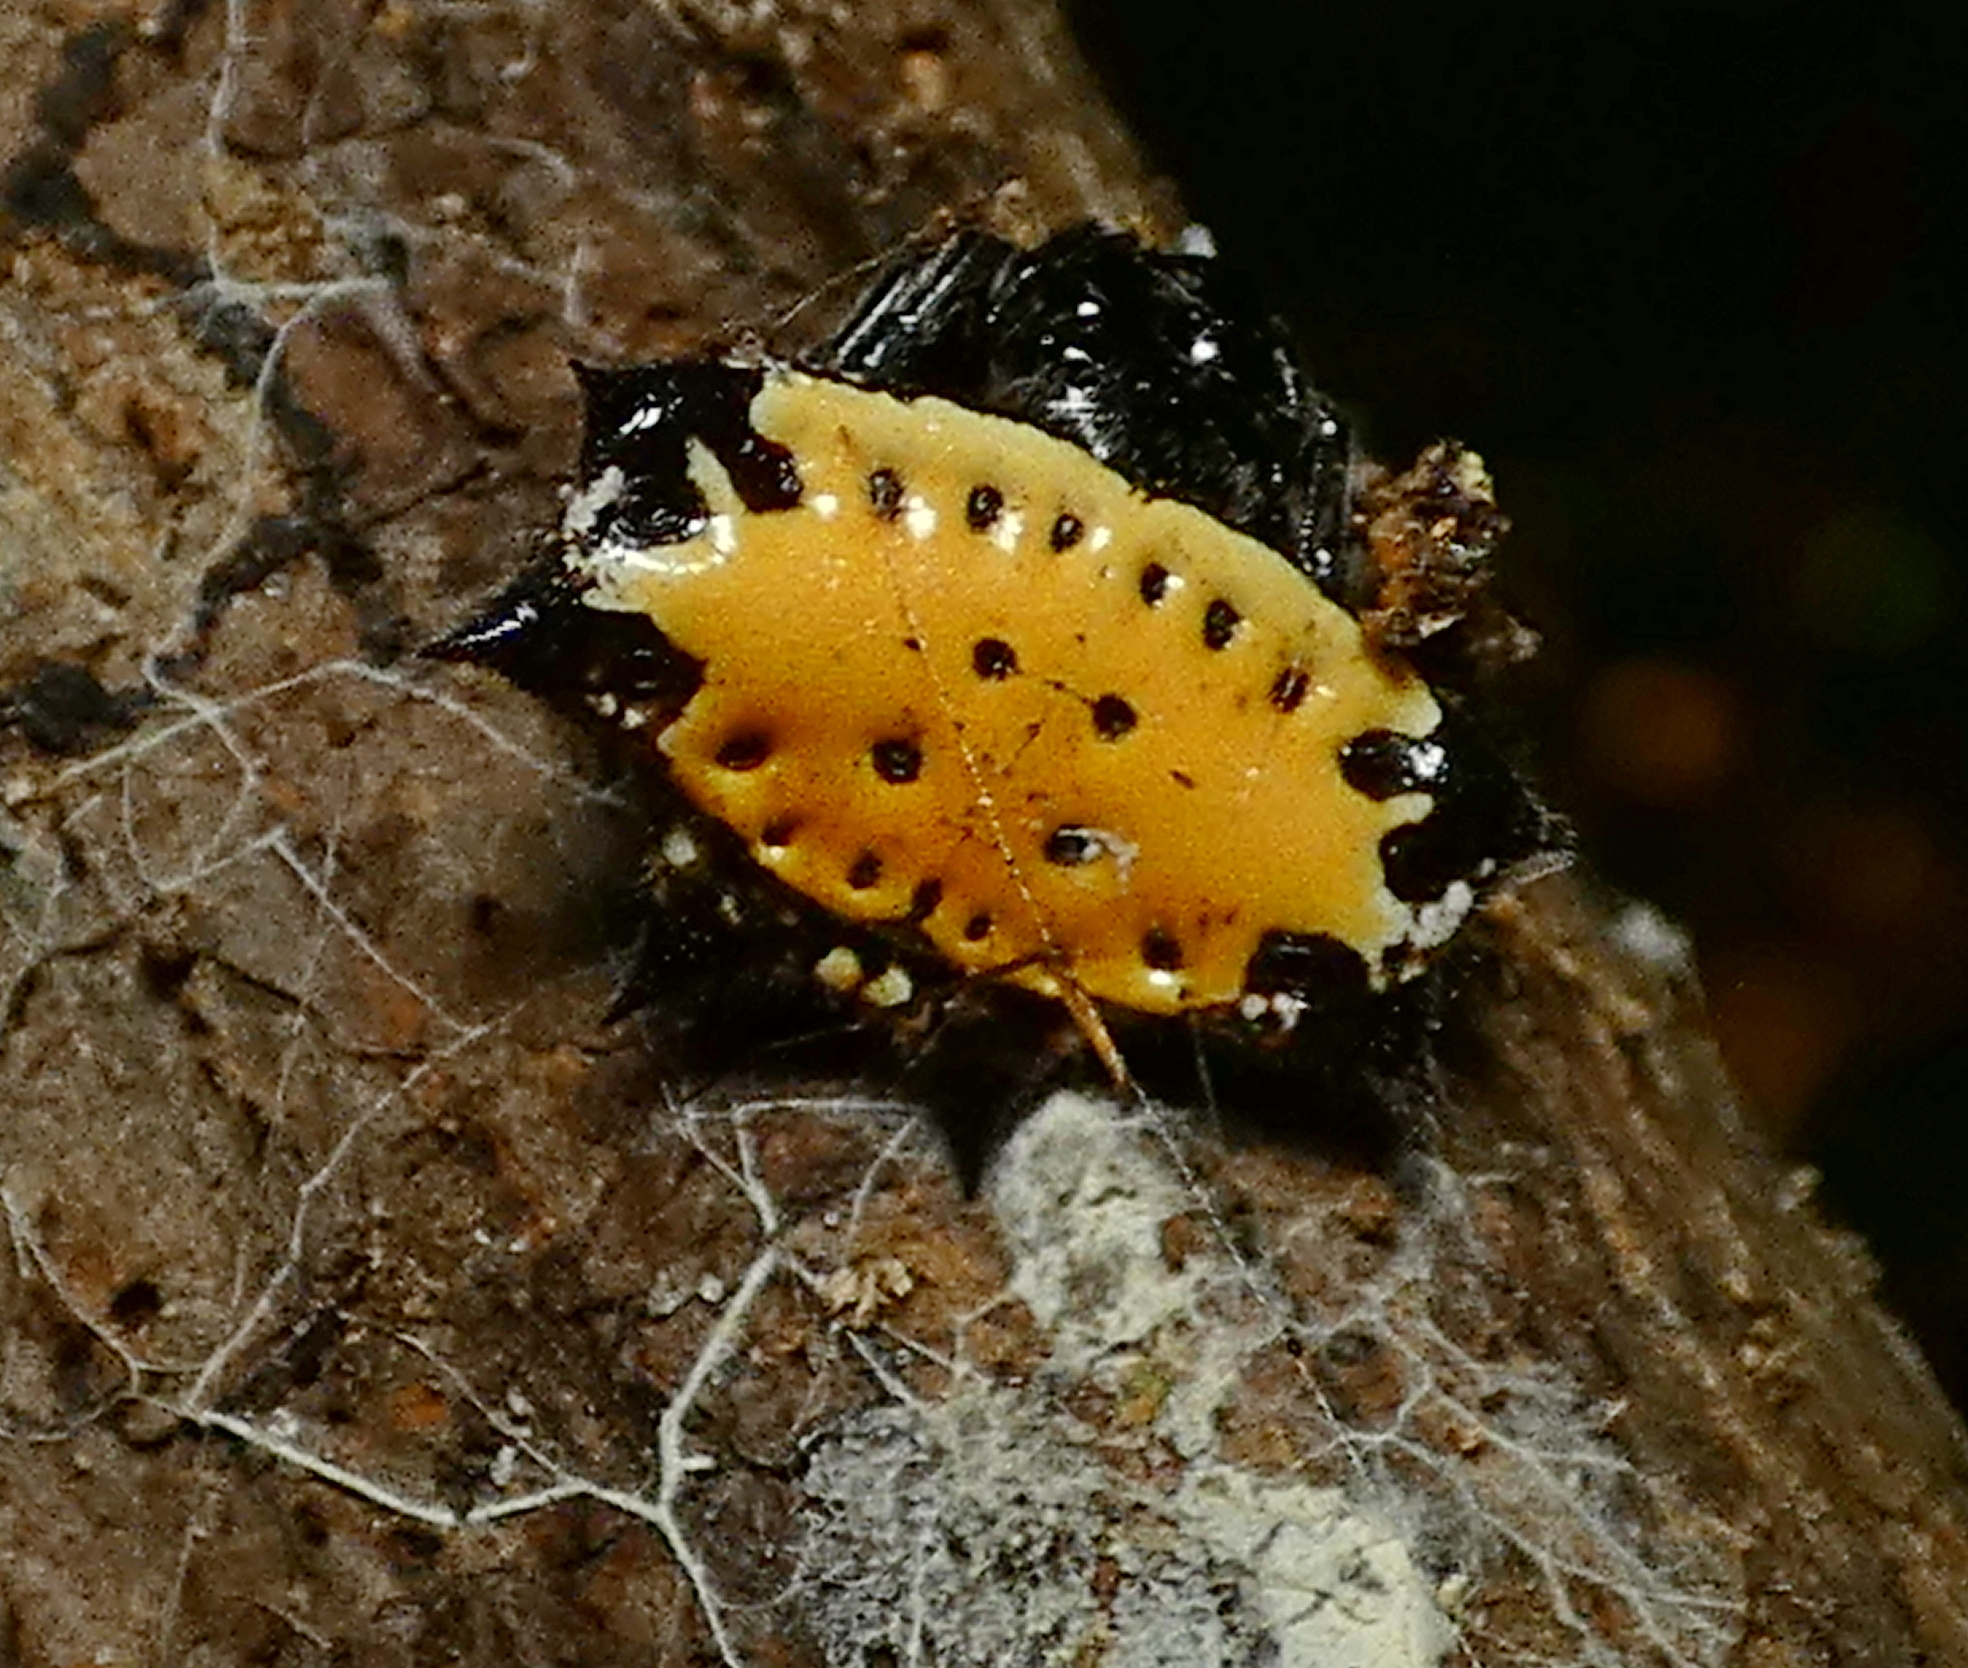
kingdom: Animalia
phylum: Arthropoda
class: Arachnida
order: Araneae
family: Araneidae
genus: Gasteracantha
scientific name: Gasteracantha cancriformis
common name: Orb weavers
